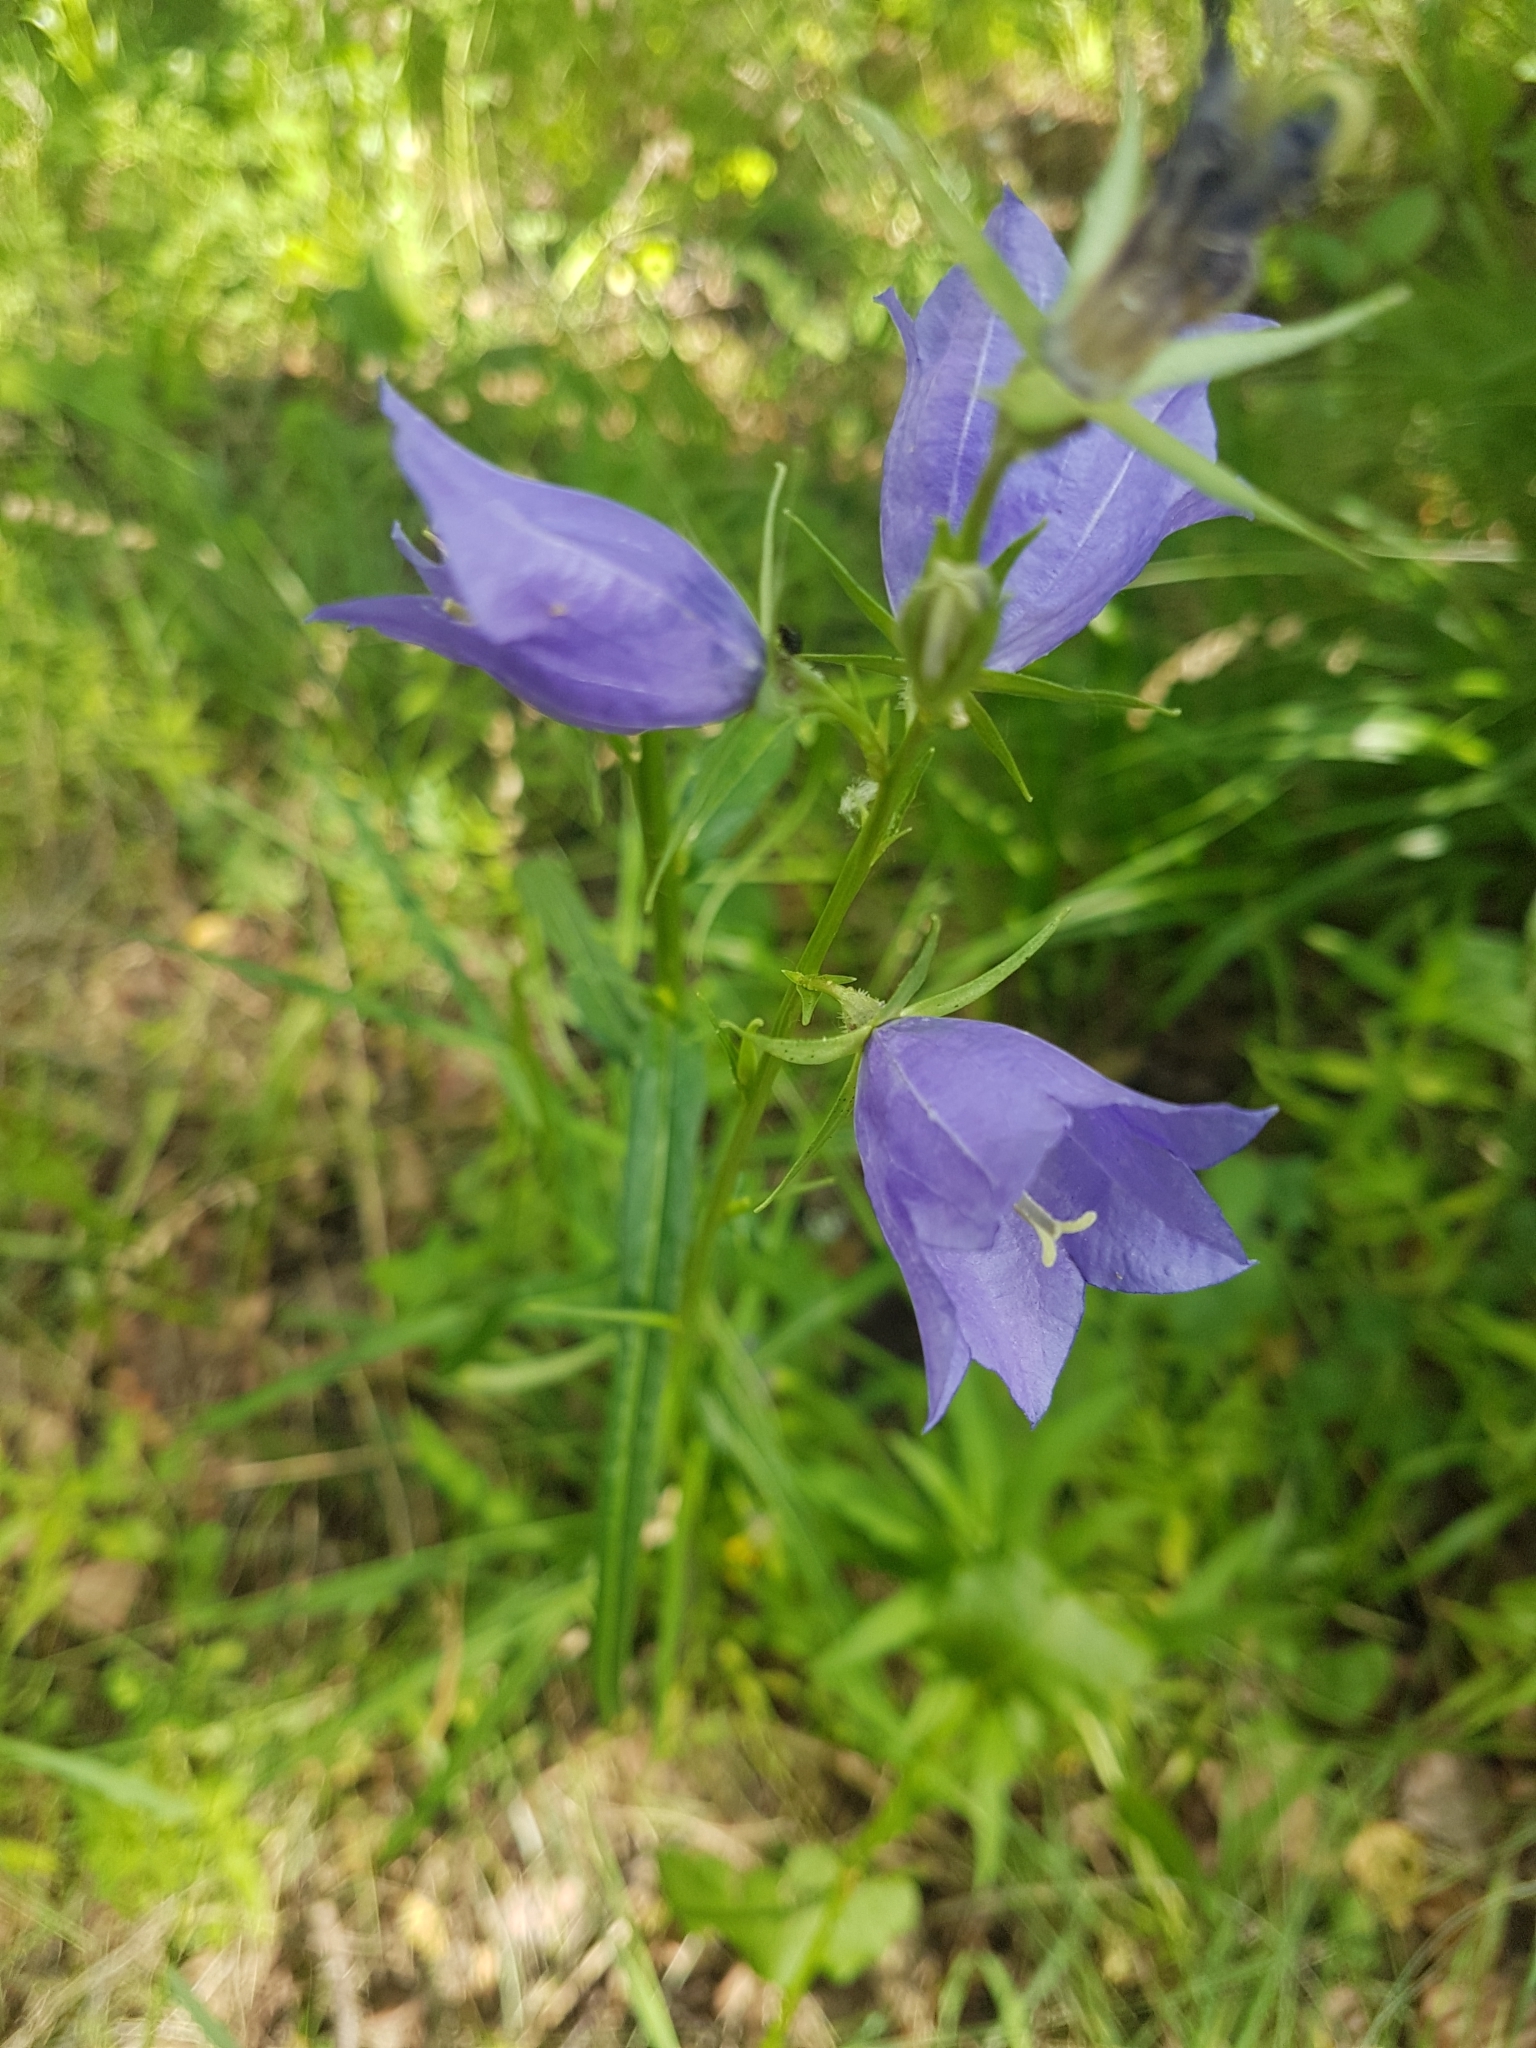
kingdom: Plantae
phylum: Tracheophyta
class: Magnoliopsida
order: Asterales
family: Campanulaceae
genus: Campanula
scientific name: Campanula persicifolia
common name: Peach-leaved bellflower
